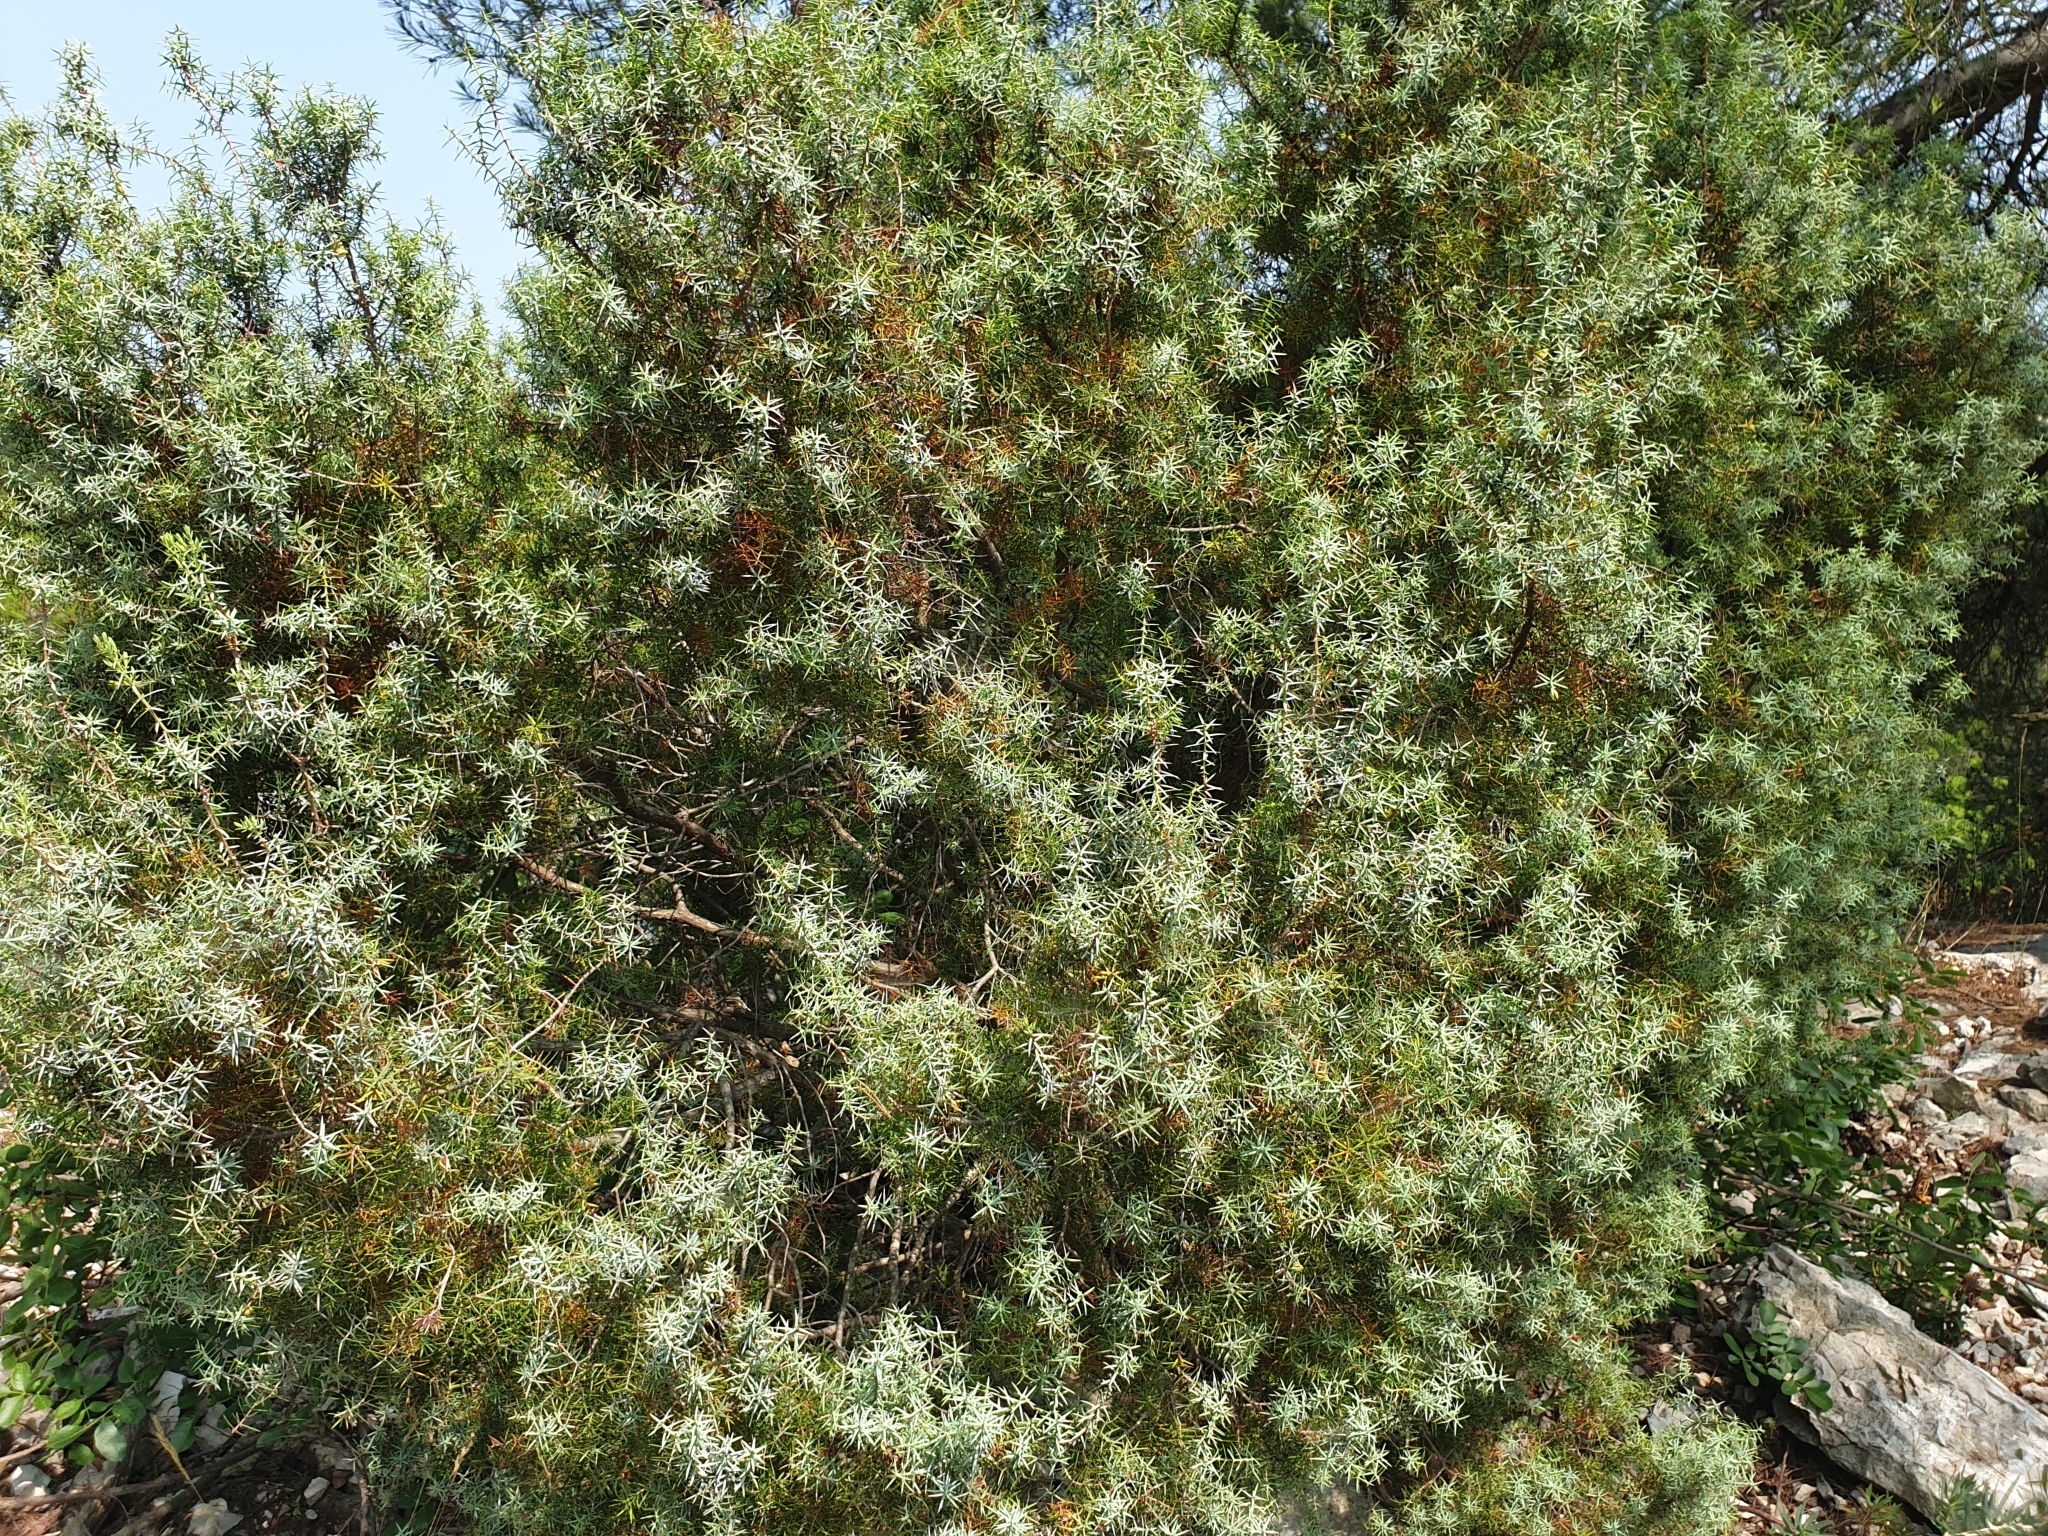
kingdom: Plantae
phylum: Tracheophyta
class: Pinopsida
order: Pinales
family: Cupressaceae
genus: Juniperus
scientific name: Juniperus oxycedrus
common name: Prickly juniper
